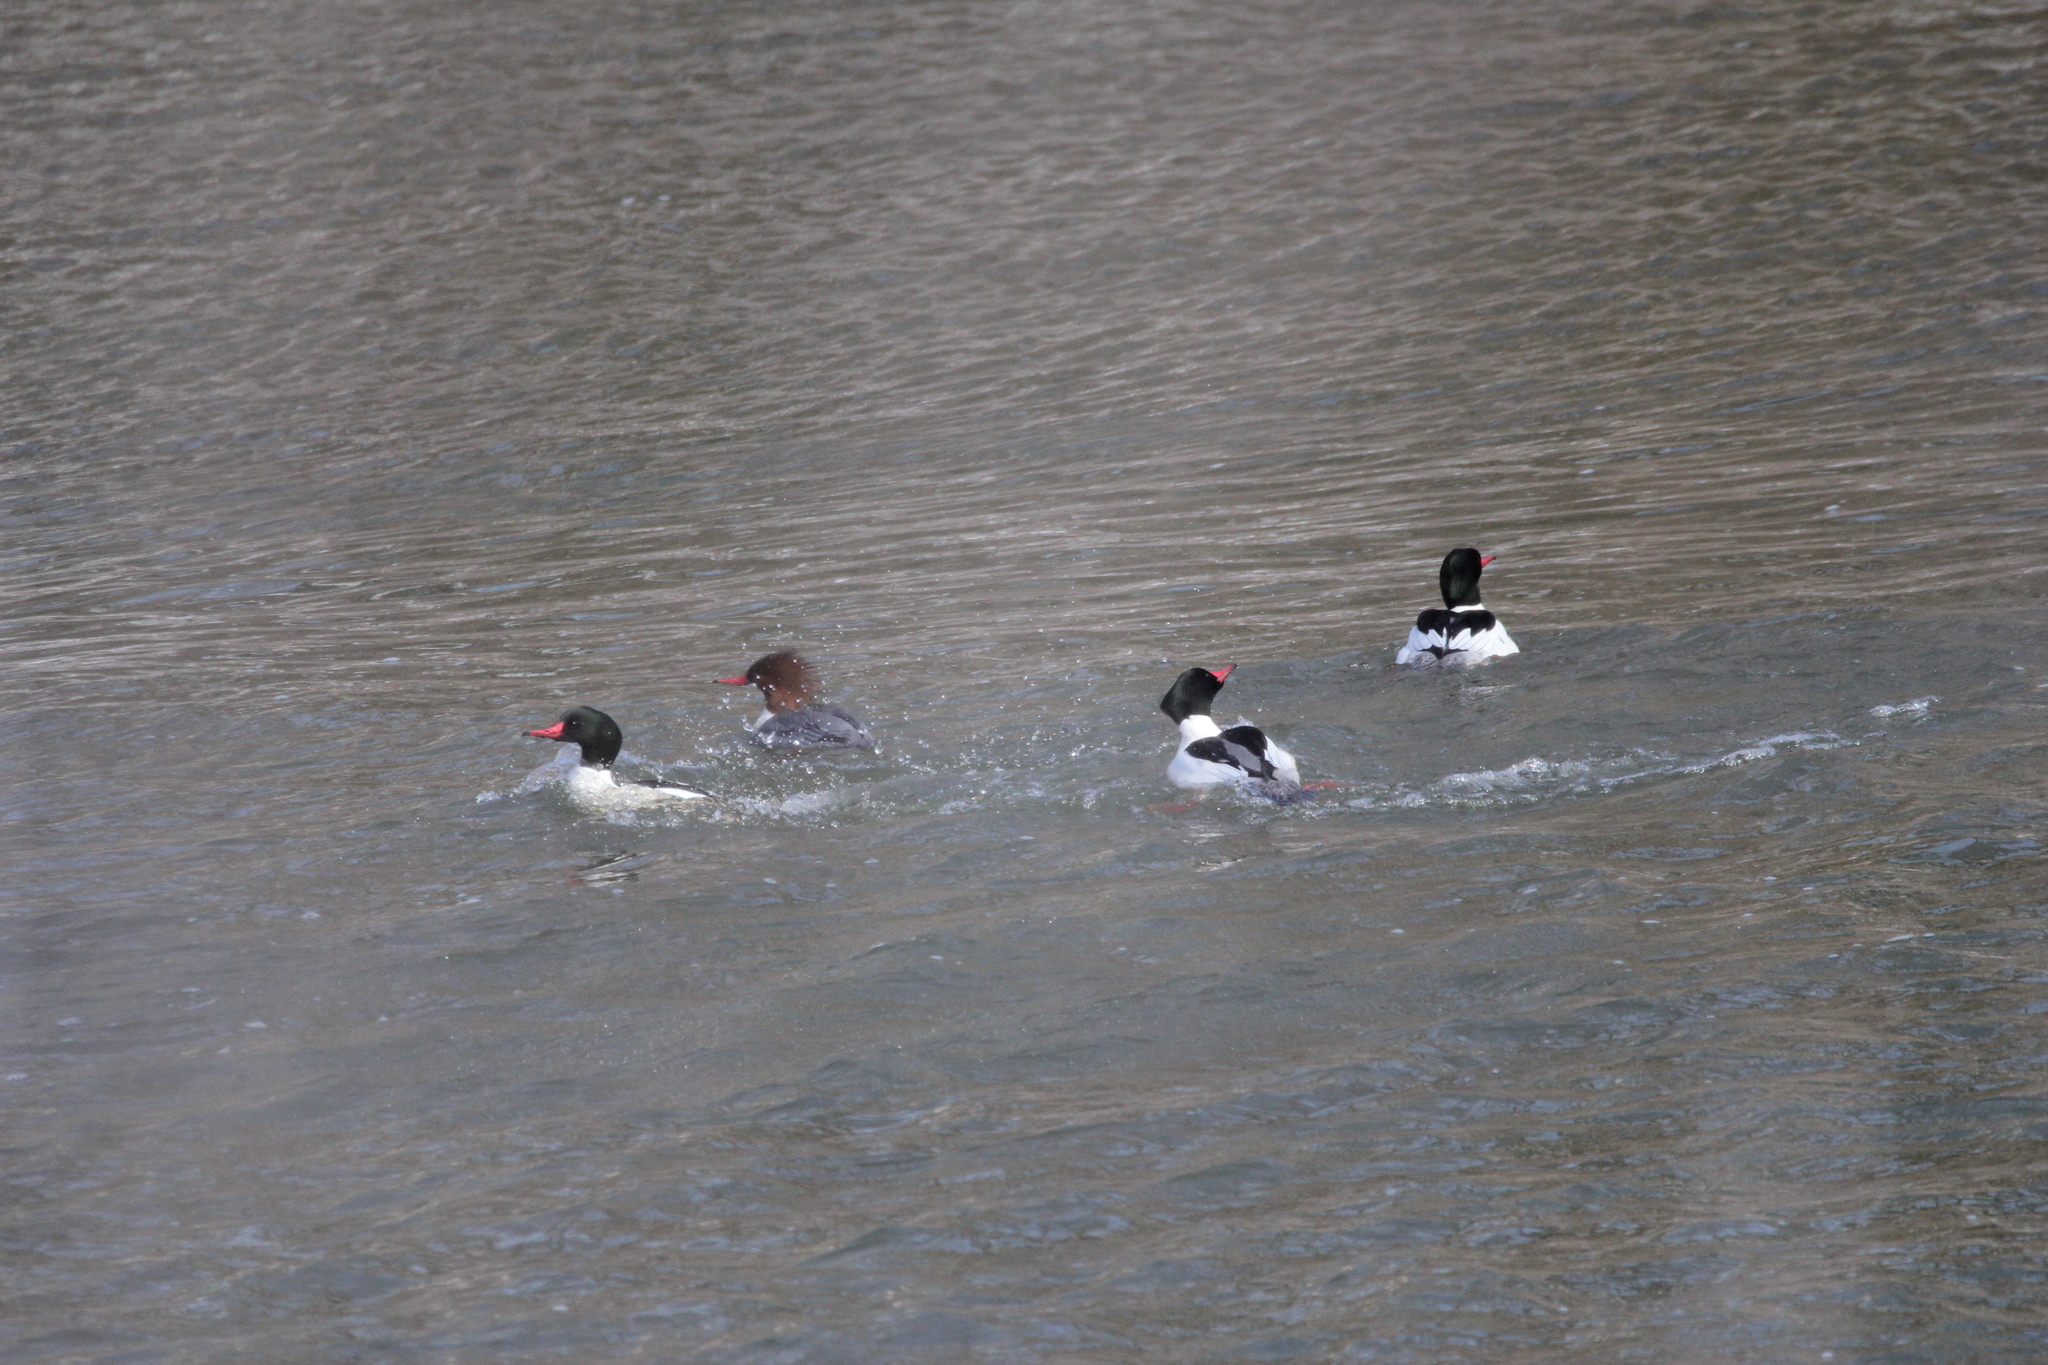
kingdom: Animalia
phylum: Chordata
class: Aves
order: Anseriformes
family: Anatidae
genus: Mergus
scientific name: Mergus merganser
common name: Common merganser
